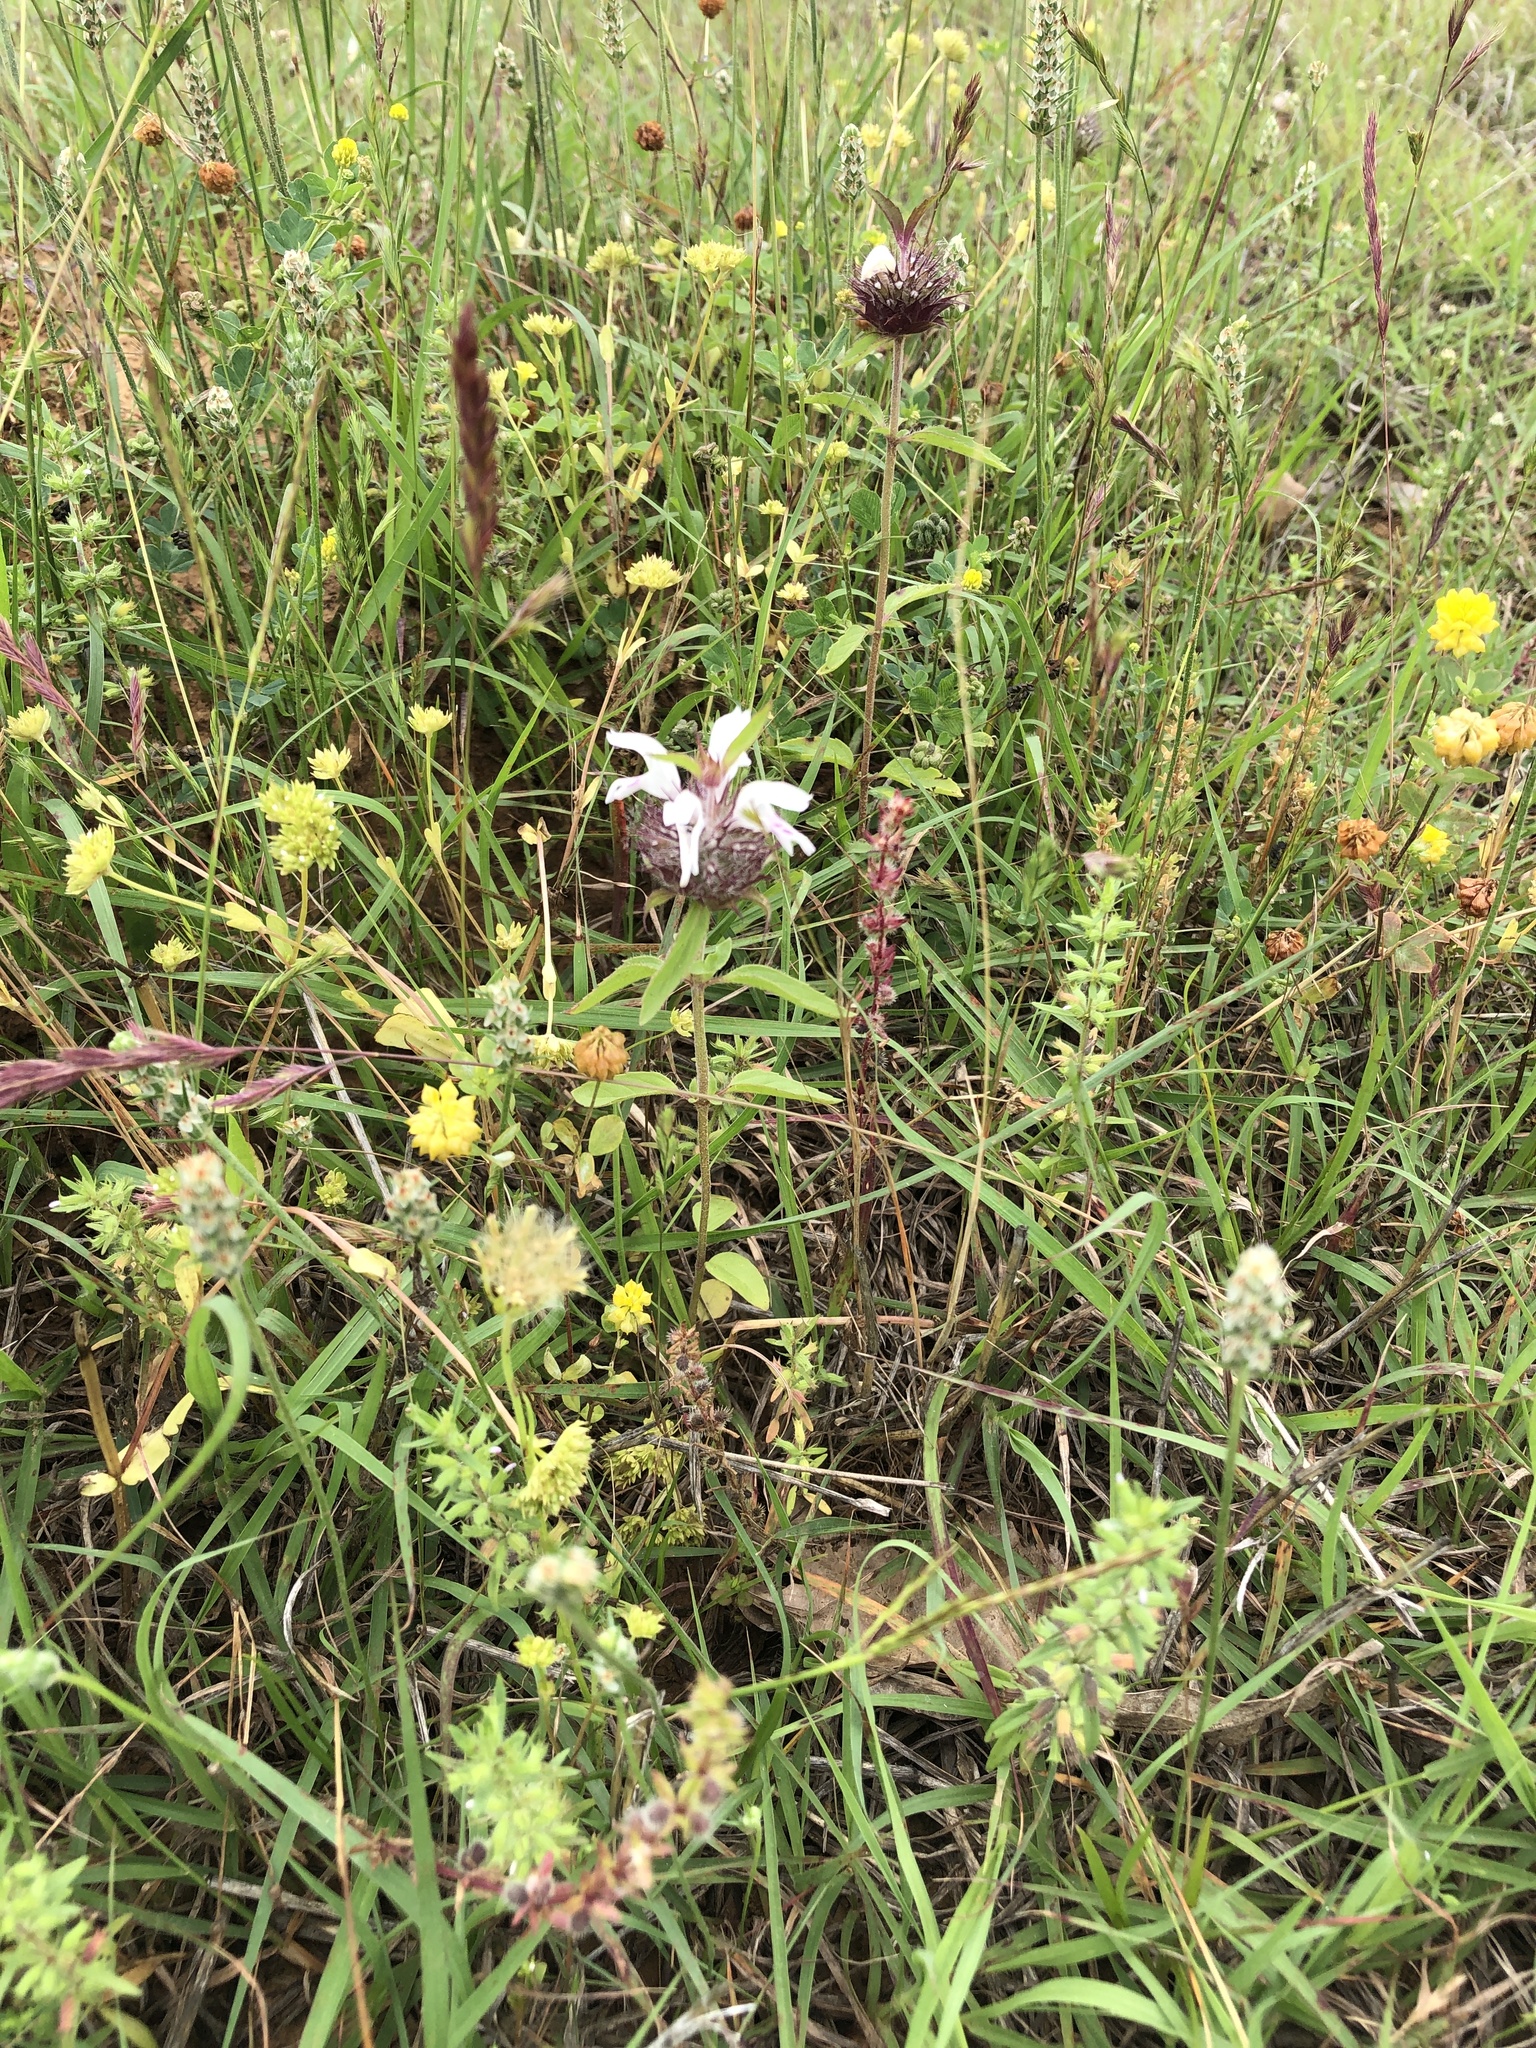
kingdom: Plantae
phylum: Tracheophyta
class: Magnoliopsida
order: Lamiales
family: Lamiaceae
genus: Monarda
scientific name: Monarda clinopodioides
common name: Basil beebalm
